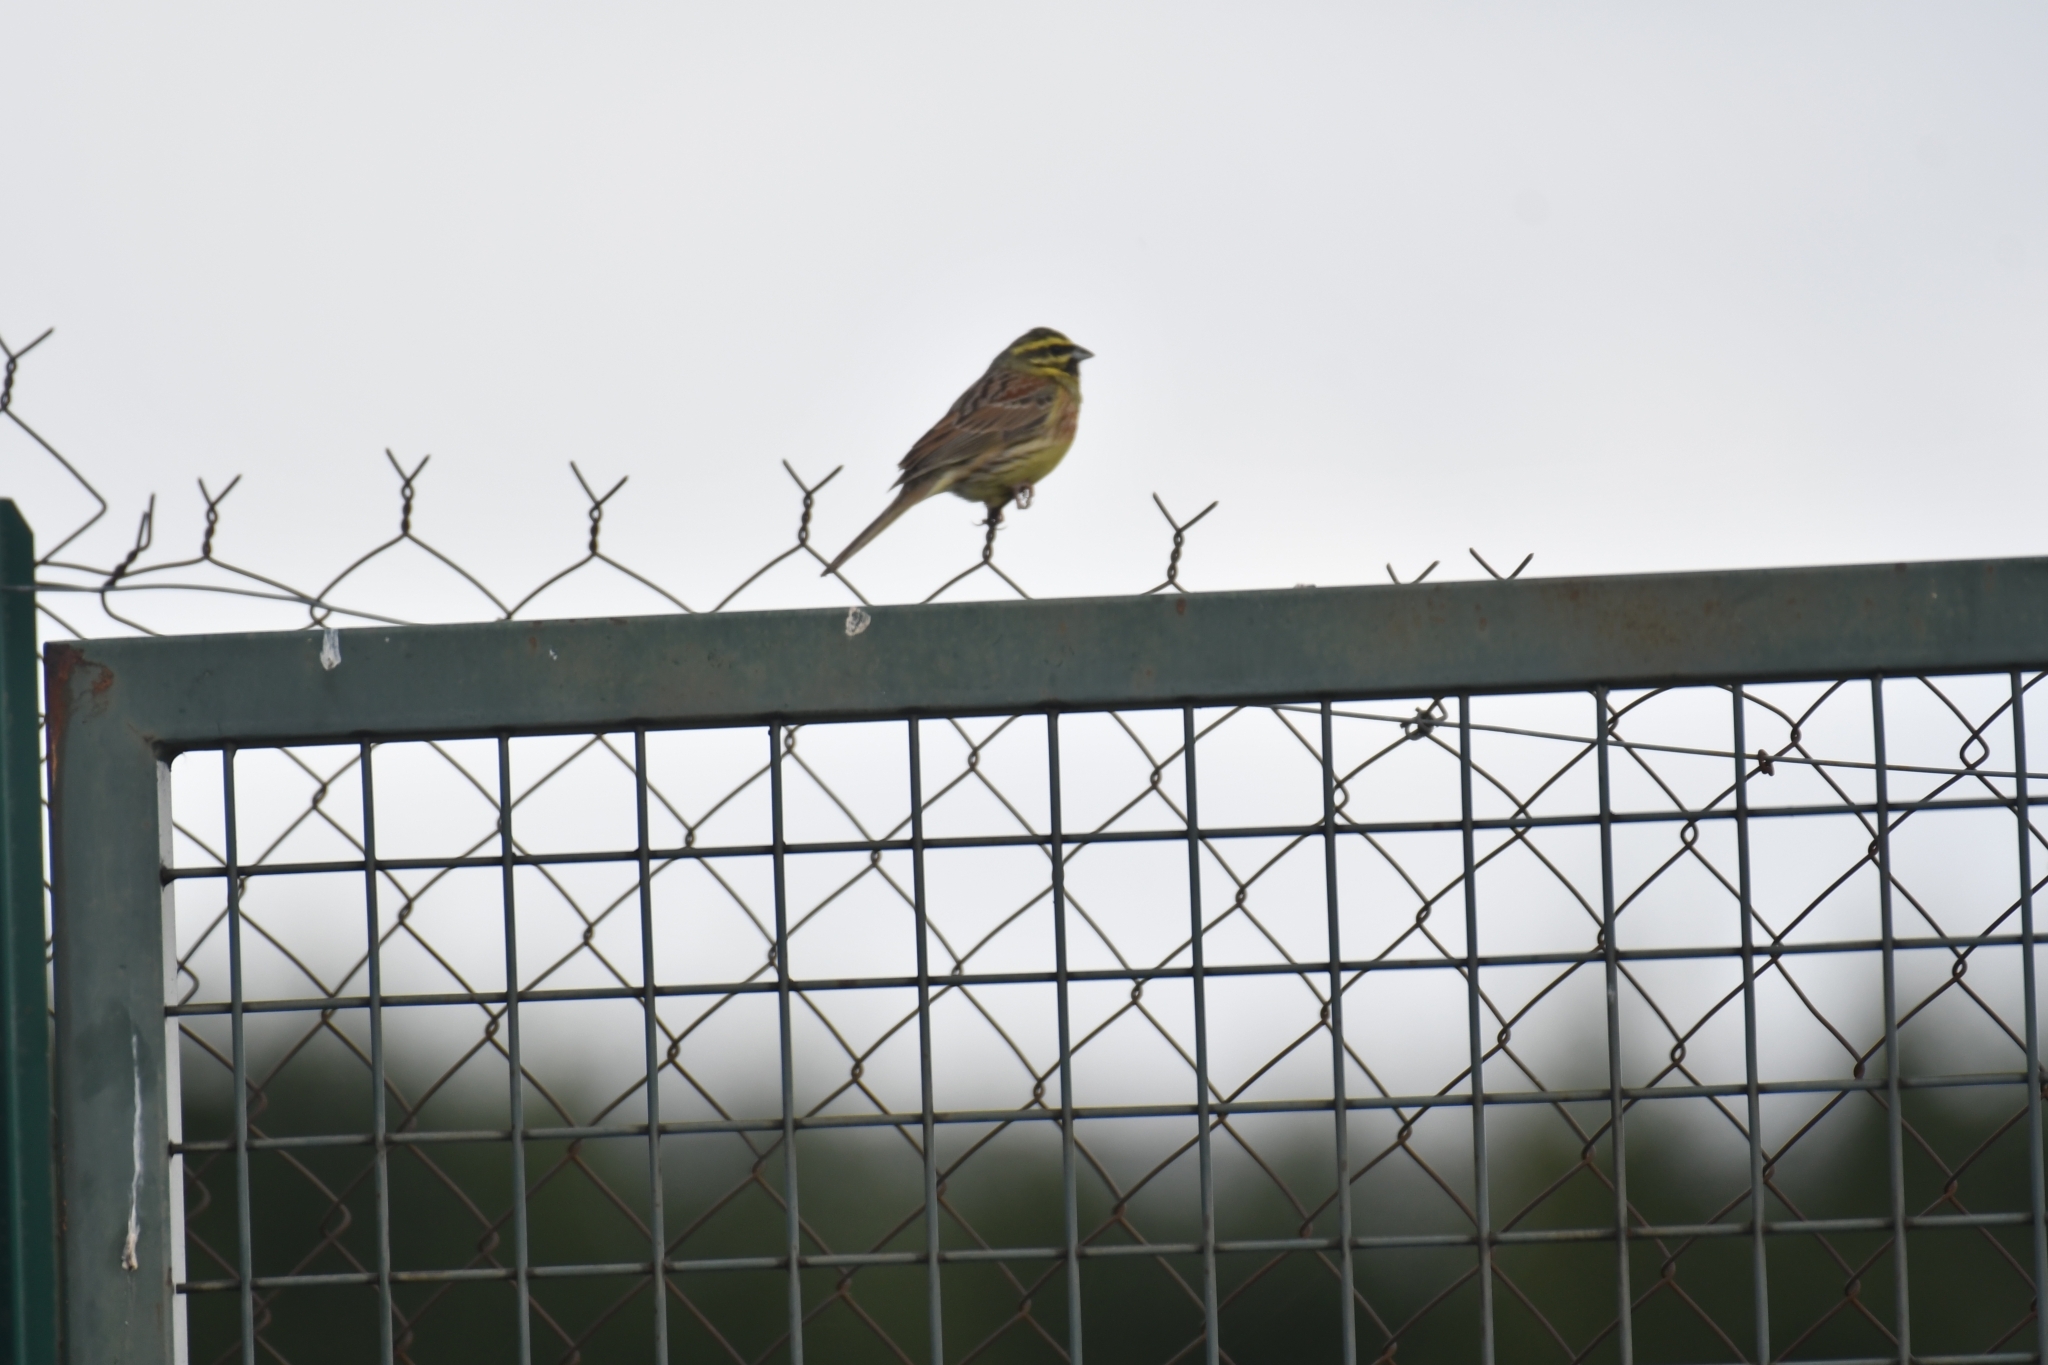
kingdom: Animalia
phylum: Chordata
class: Aves
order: Passeriformes
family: Emberizidae
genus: Emberiza
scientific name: Emberiza cirlus
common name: Cirl bunting
